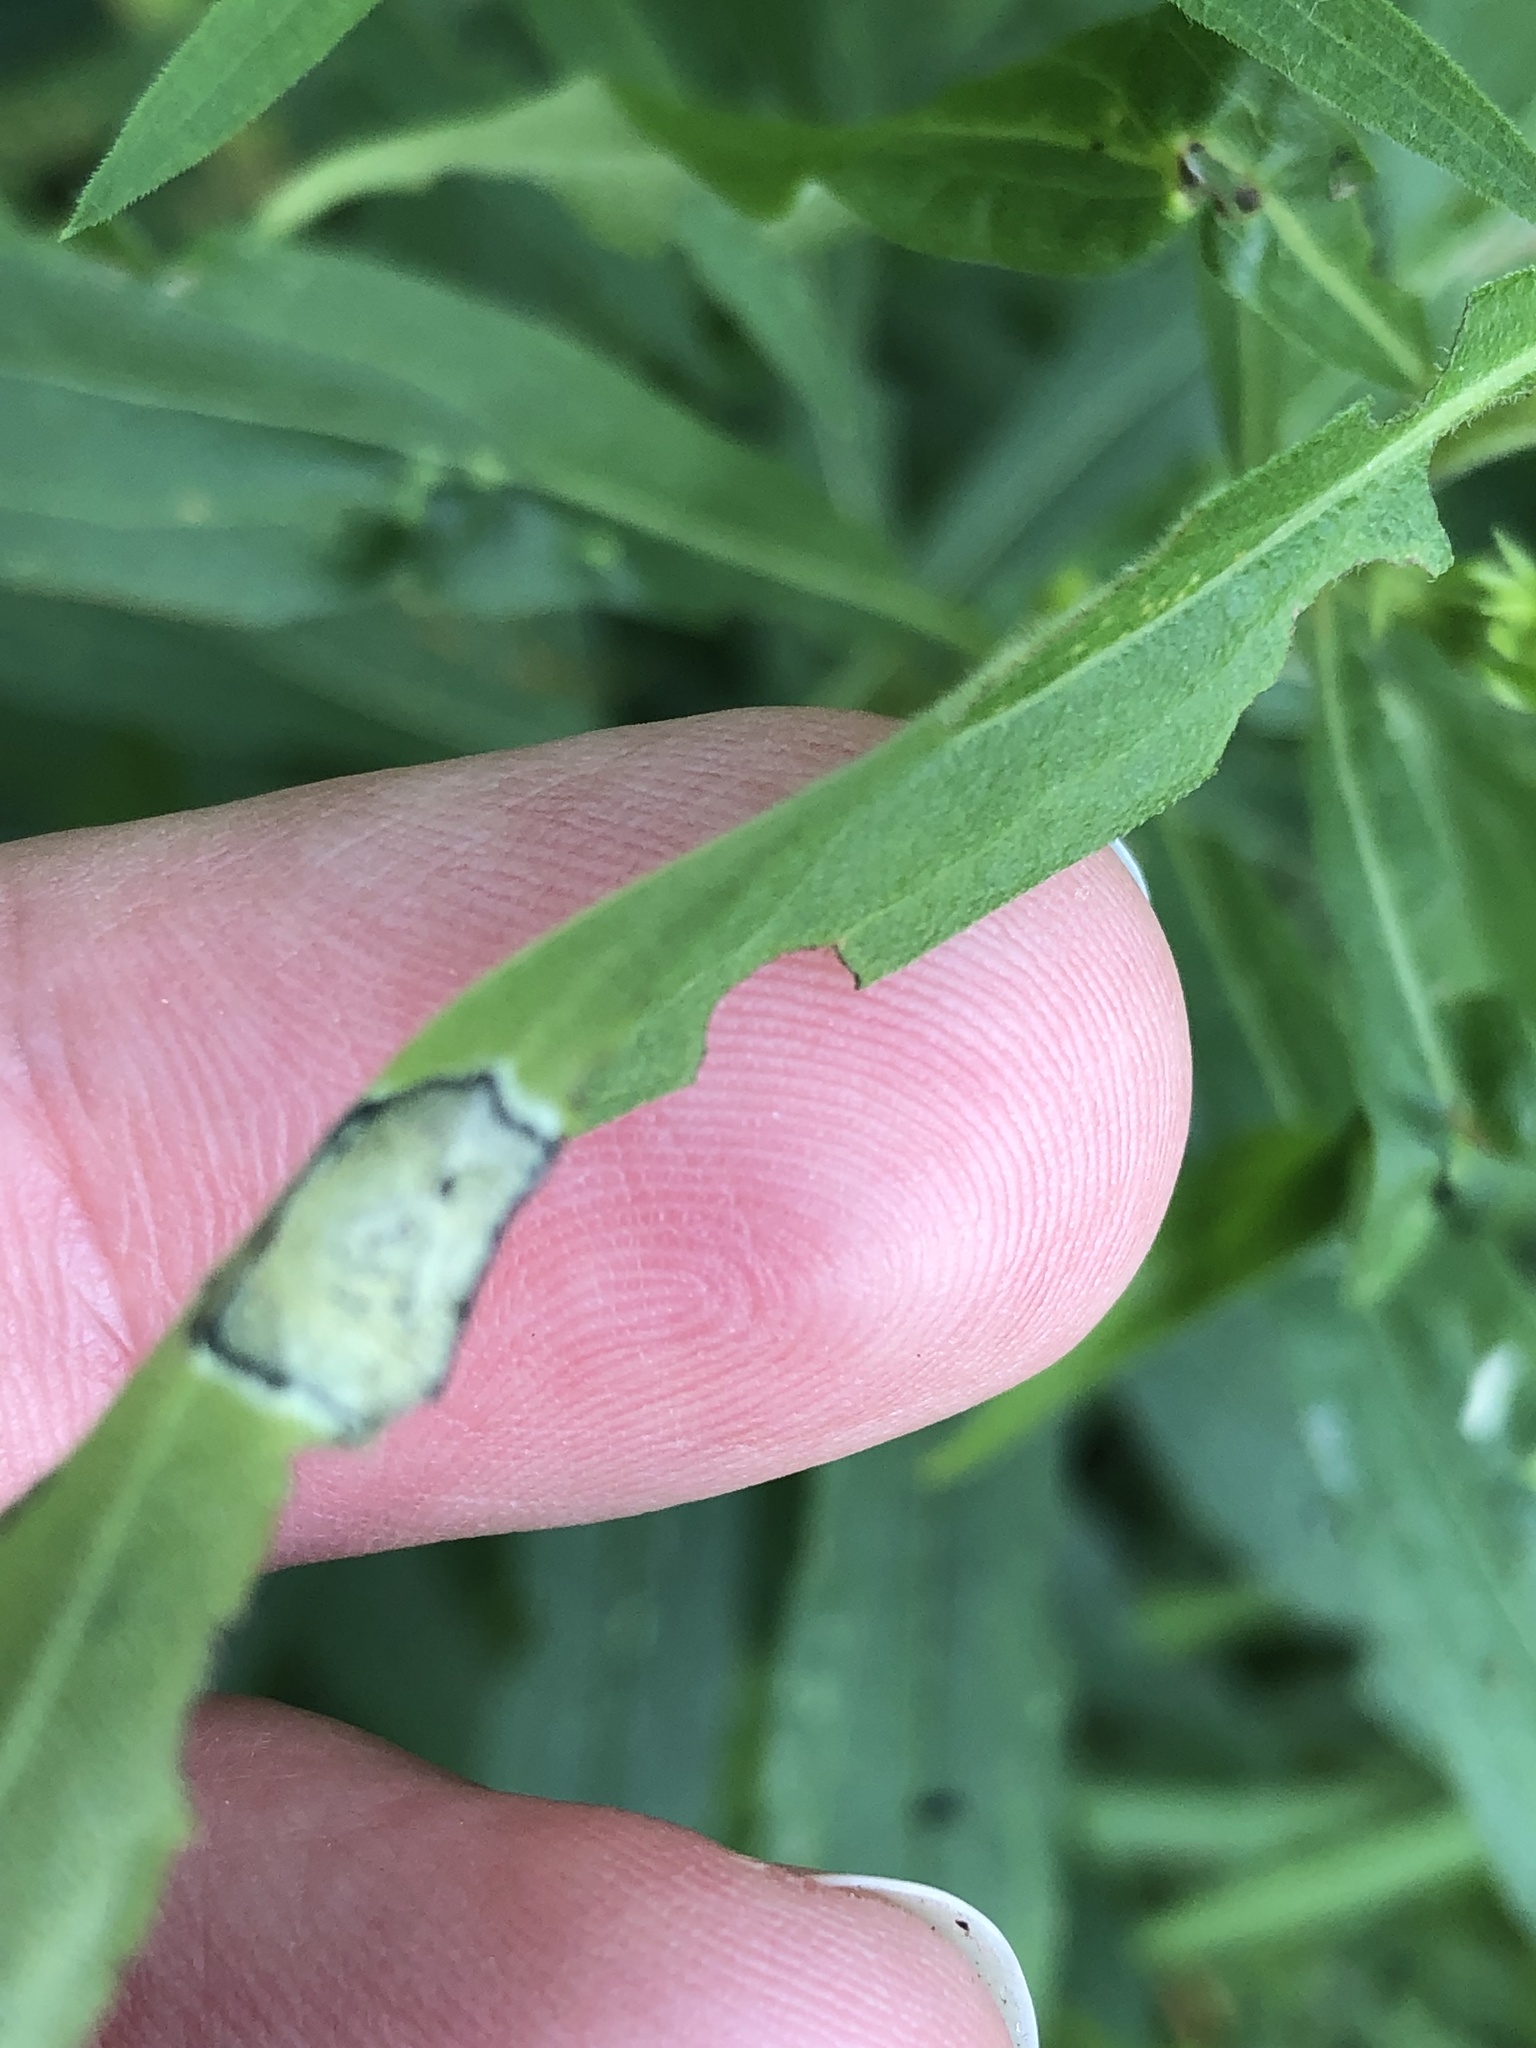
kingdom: Animalia
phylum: Arthropoda
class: Insecta
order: Diptera
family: Cecidomyiidae
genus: Asteromyia
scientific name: Asteromyia carbonifera
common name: Carbonifera goldenrod gall midge
